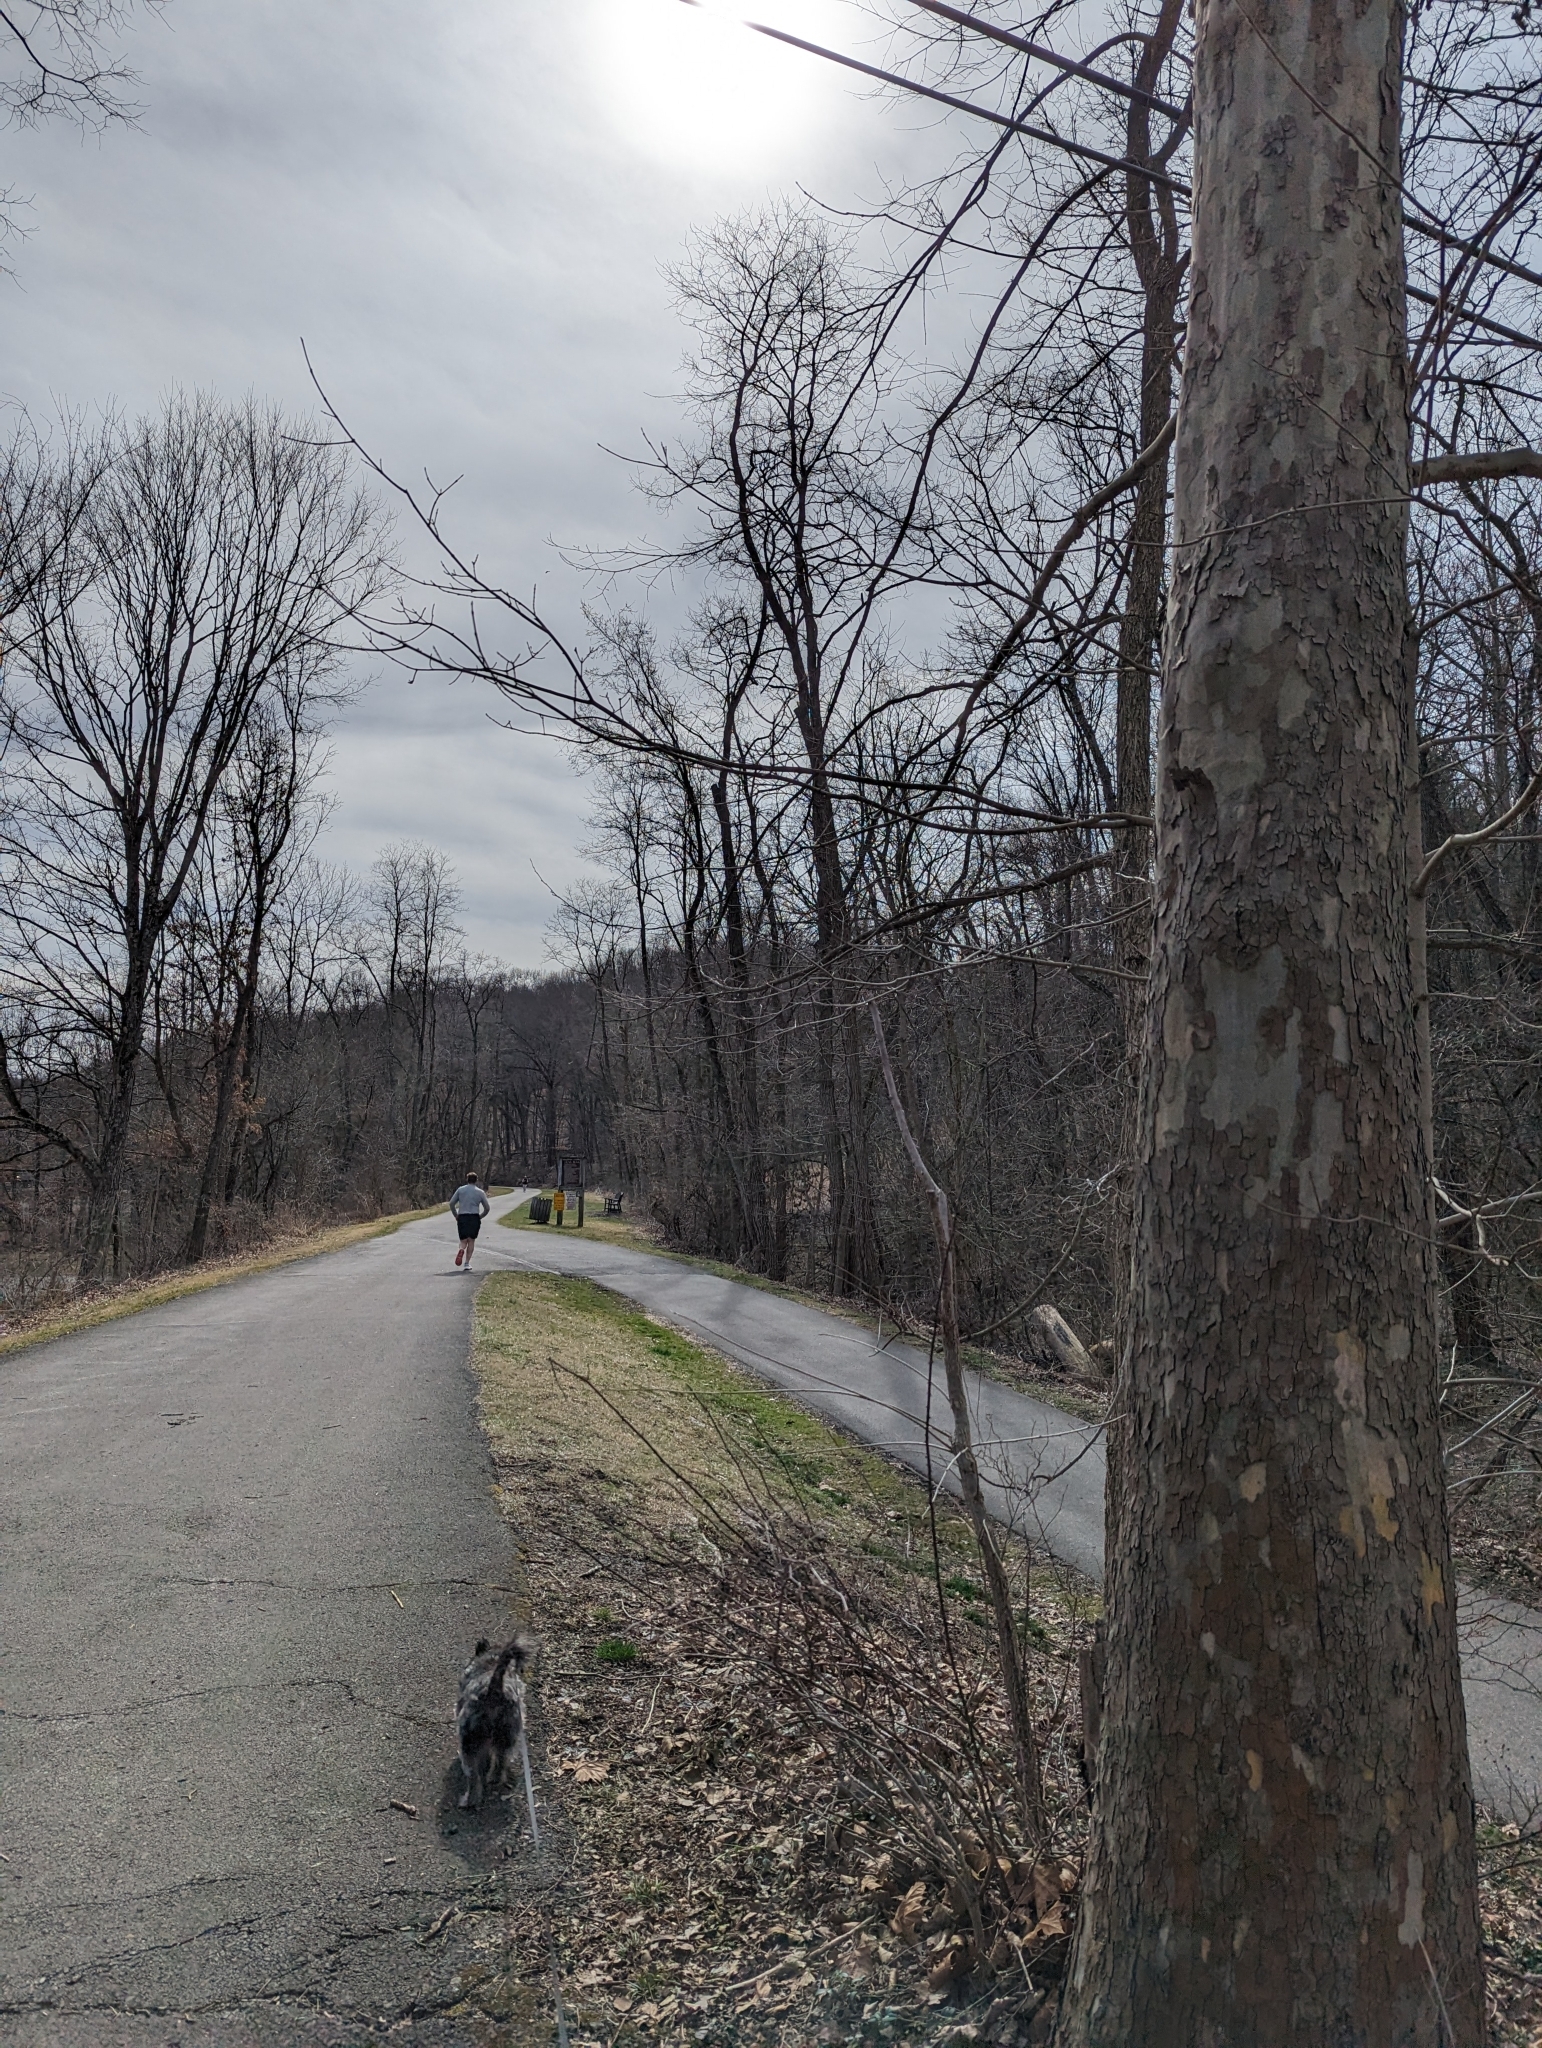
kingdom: Plantae
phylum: Tracheophyta
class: Magnoliopsida
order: Proteales
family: Platanaceae
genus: Platanus
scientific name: Platanus occidentalis
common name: American sycamore
